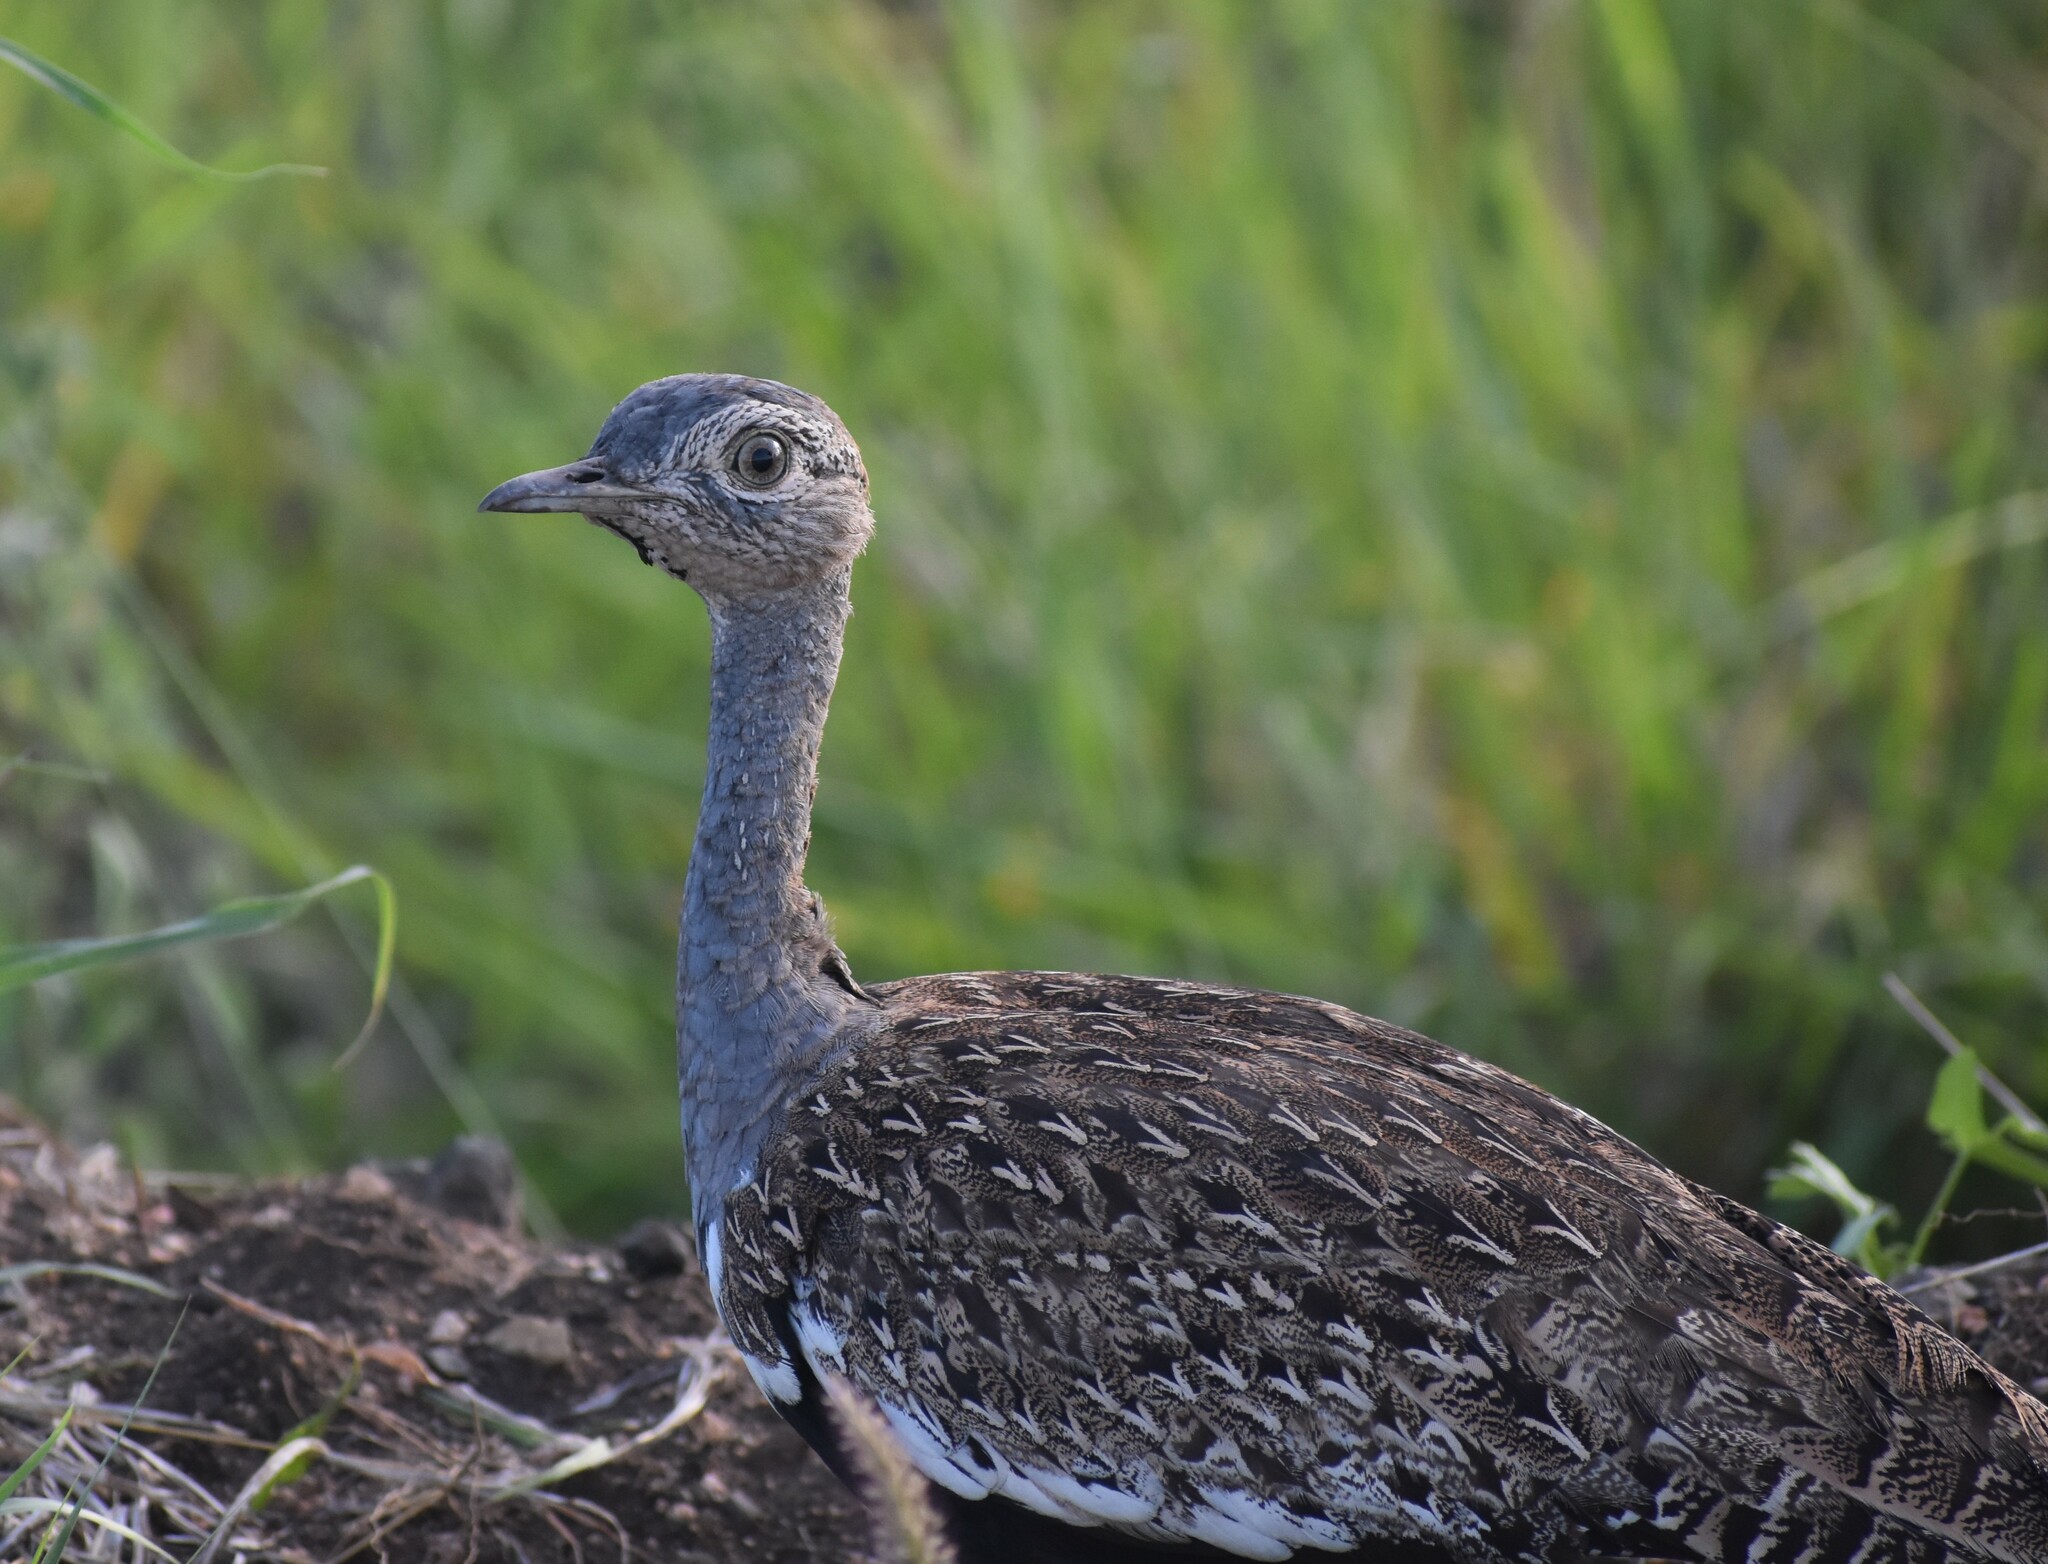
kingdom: Animalia
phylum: Chordata
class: Aves
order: Otidiformes
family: Otididae
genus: Lophotis
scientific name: Lophotis ruficrista
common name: Red-crested korhaan
